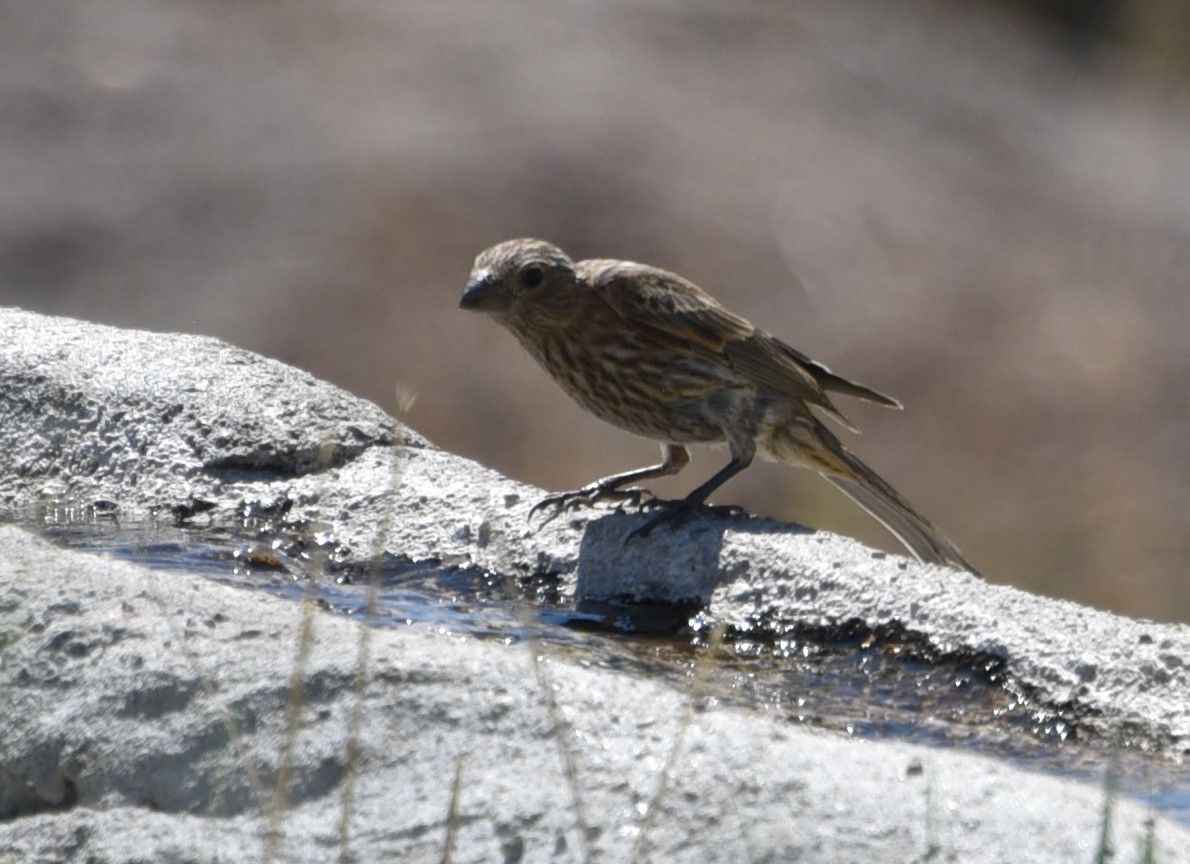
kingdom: Animalia
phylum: Chordata
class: Aves
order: Passeriformes
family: Fringillidae
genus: Haemorhous
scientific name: Haemorhous mexicanus
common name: House finch
